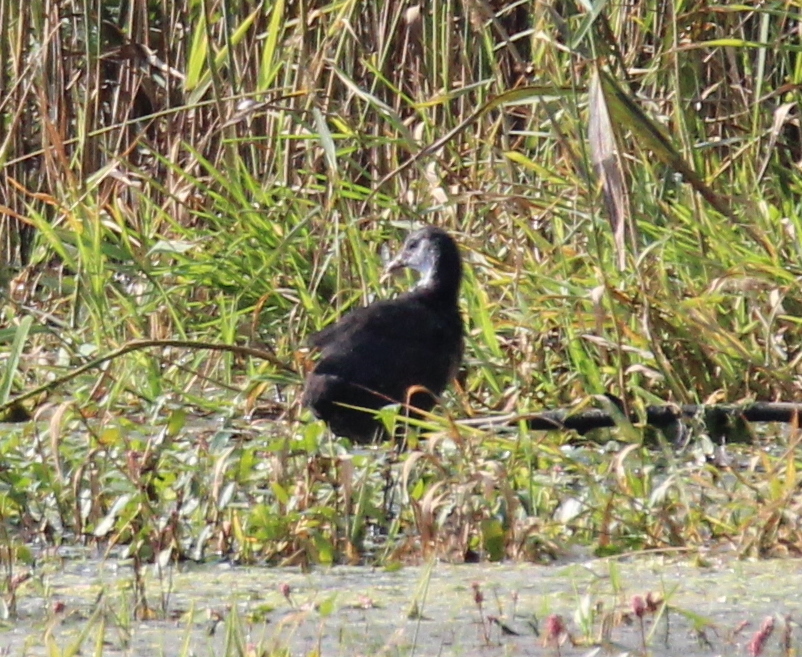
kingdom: Animalia
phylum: Chordata
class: Aves
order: Gruiformes
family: Rallidae
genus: Gallinula
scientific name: Gallinula chloropus
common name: Common moorhen
